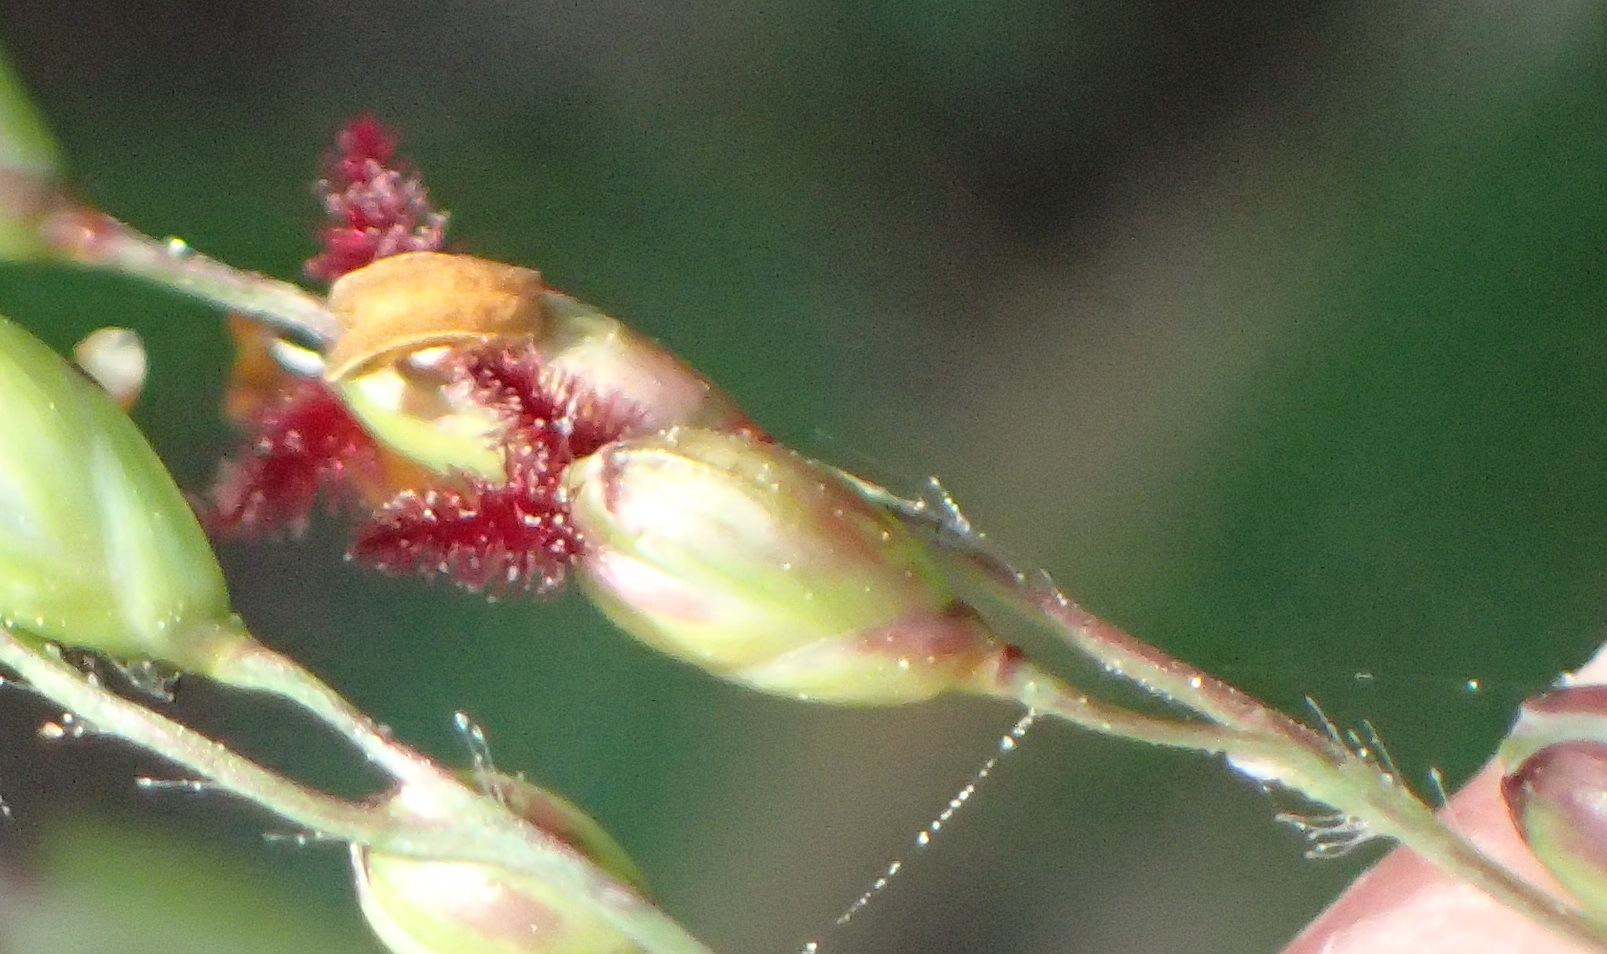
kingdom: Plantae
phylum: Tracheophyta
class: Liliopsida
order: Poales
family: Poaceae
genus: Panicum
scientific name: Panicum deustum
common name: Reed panicum
